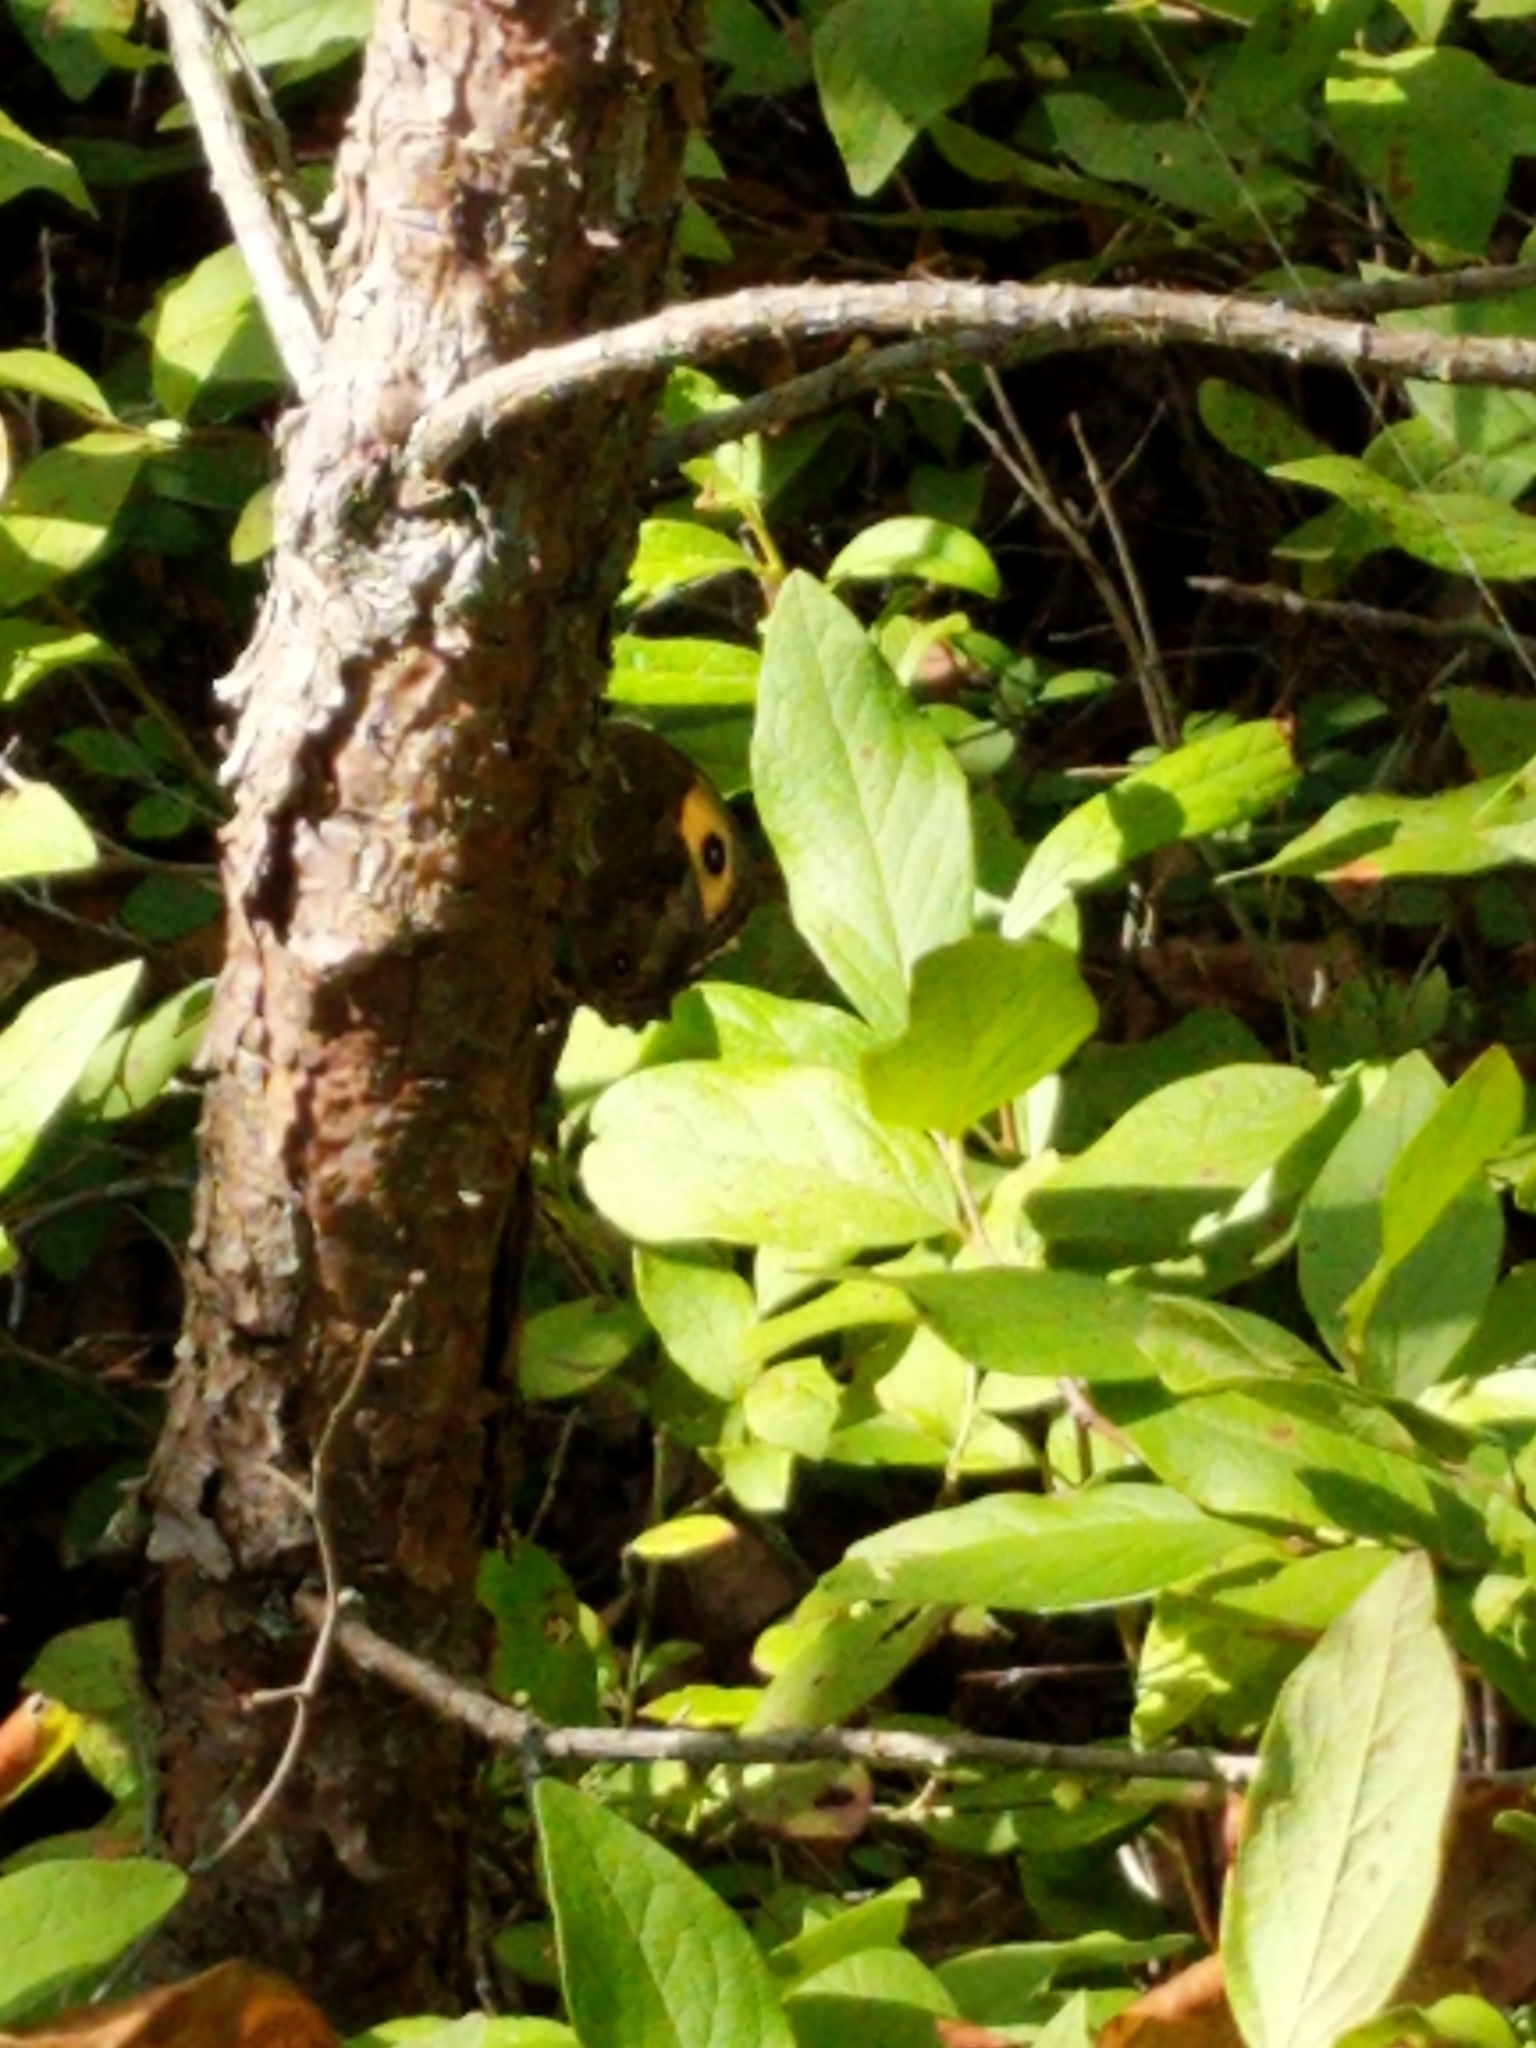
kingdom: Animalia
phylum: Arthropoda
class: Insecta
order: Lepidoptera
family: Nymphalidae
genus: Cercyonis
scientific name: Cercyonis pegala
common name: Common wood-nymph
